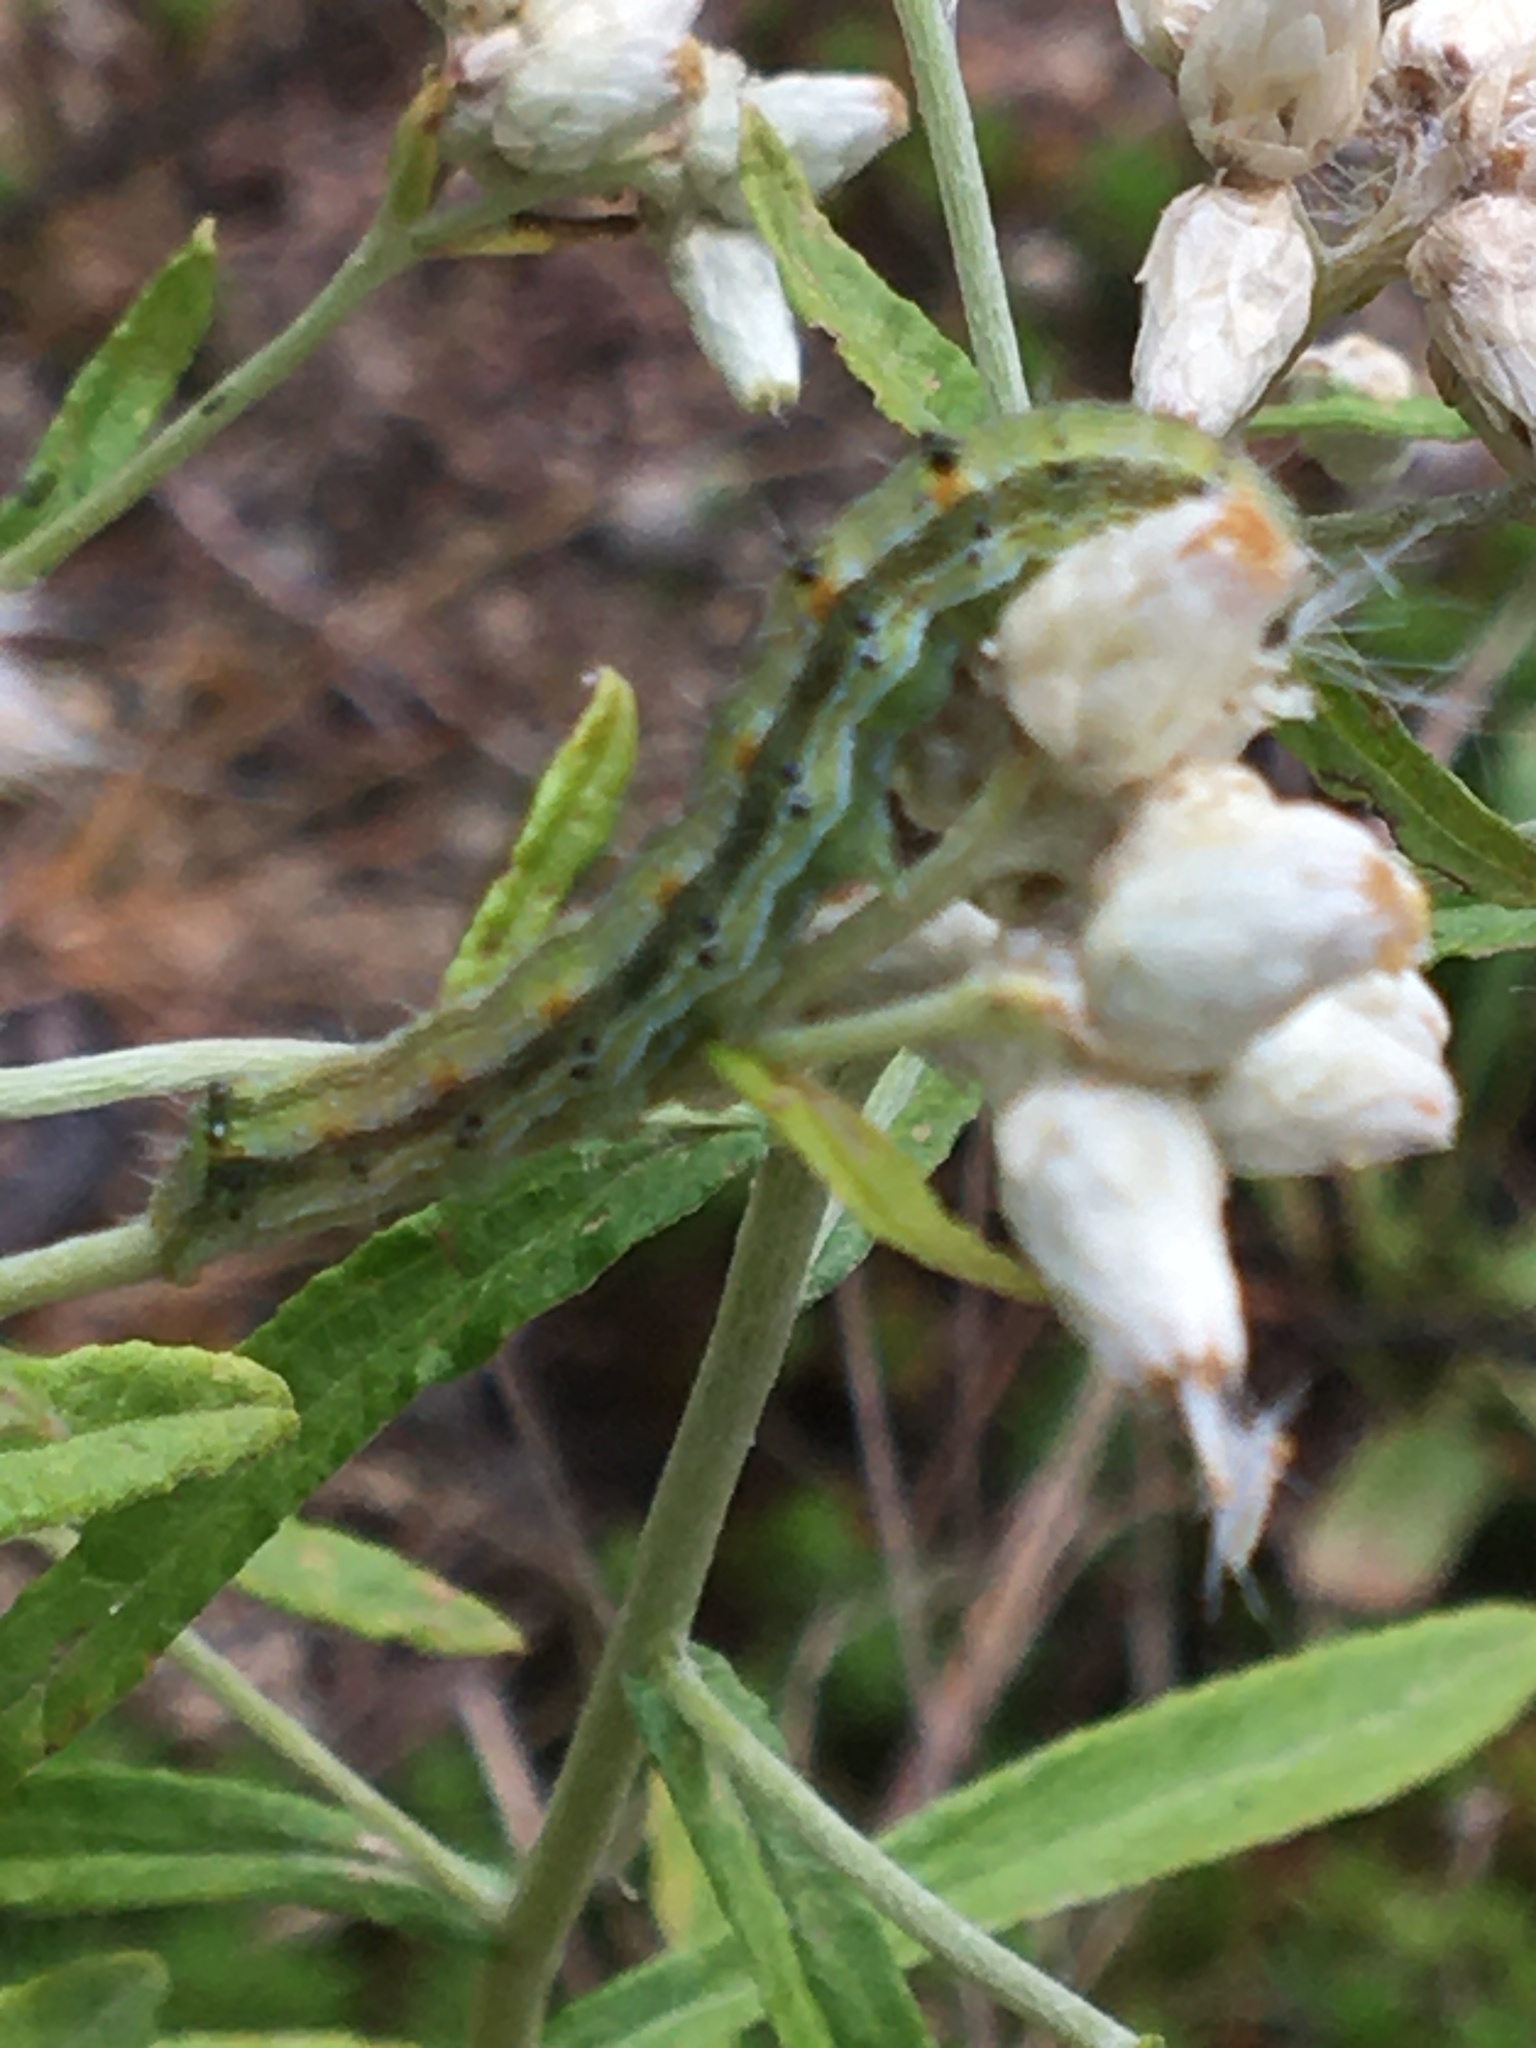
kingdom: Animalia
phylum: Arthropoda
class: Insecta
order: Lepidoptera
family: Noctuidae
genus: Chloridea
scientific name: Chloridea virescens
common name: Tobacco budworm
